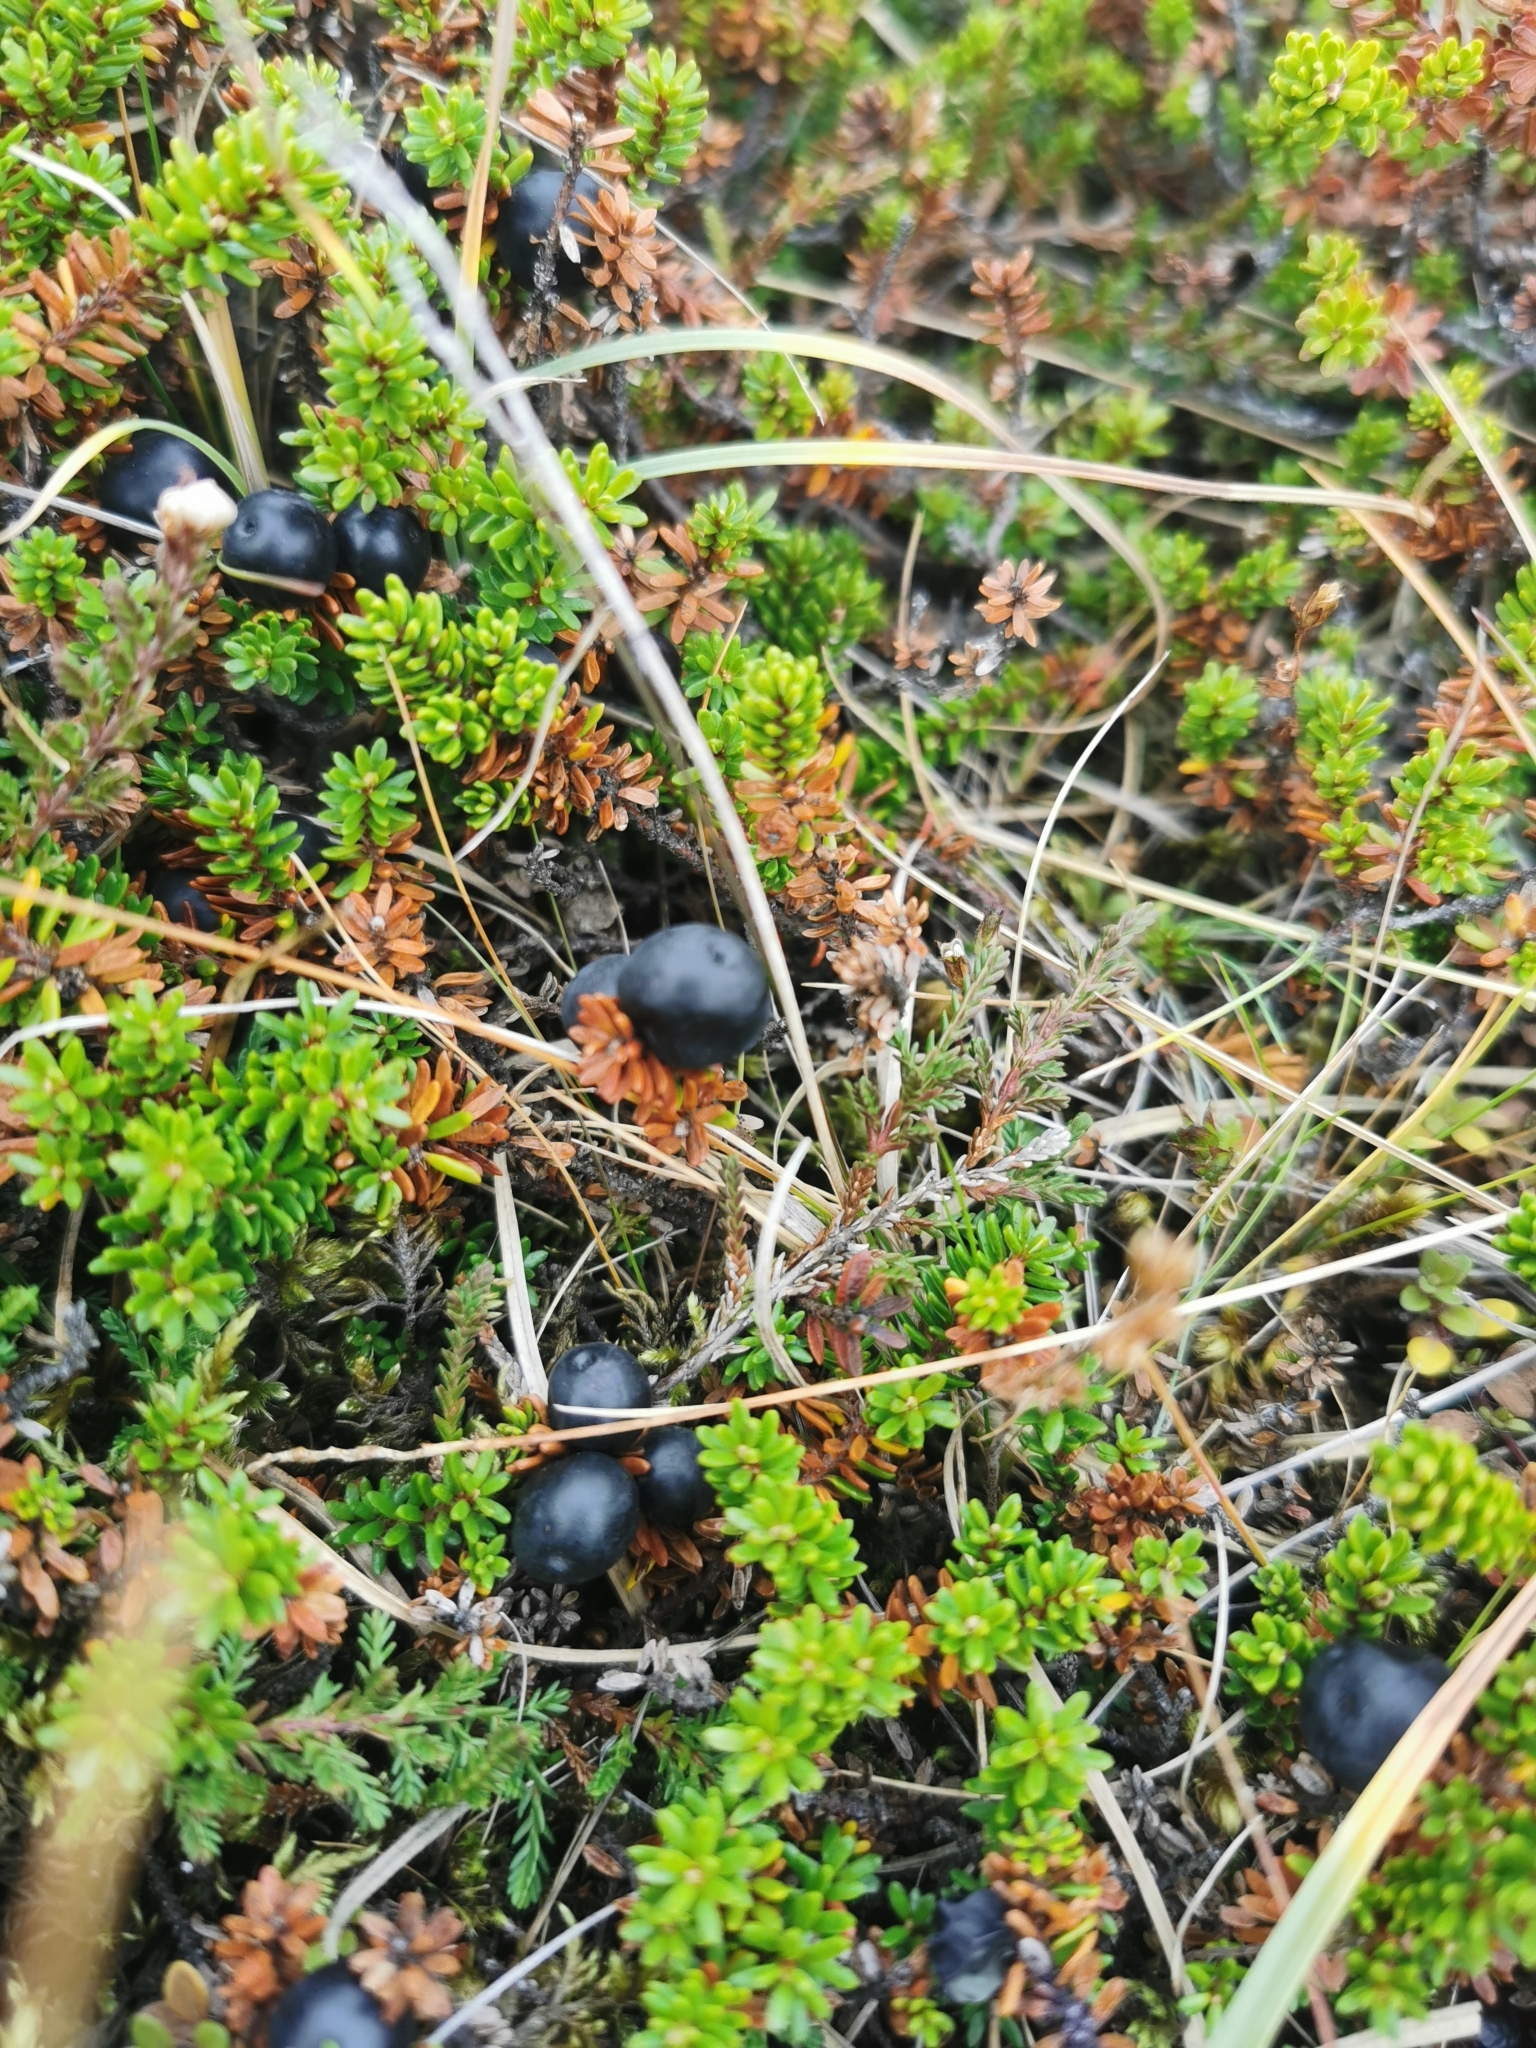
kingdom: Plantae
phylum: Tracheophyta
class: Magnoliopsida
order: Ericales
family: Ericaceae
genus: Empetrum
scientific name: Empetrum nigrum
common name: Black crowberry
